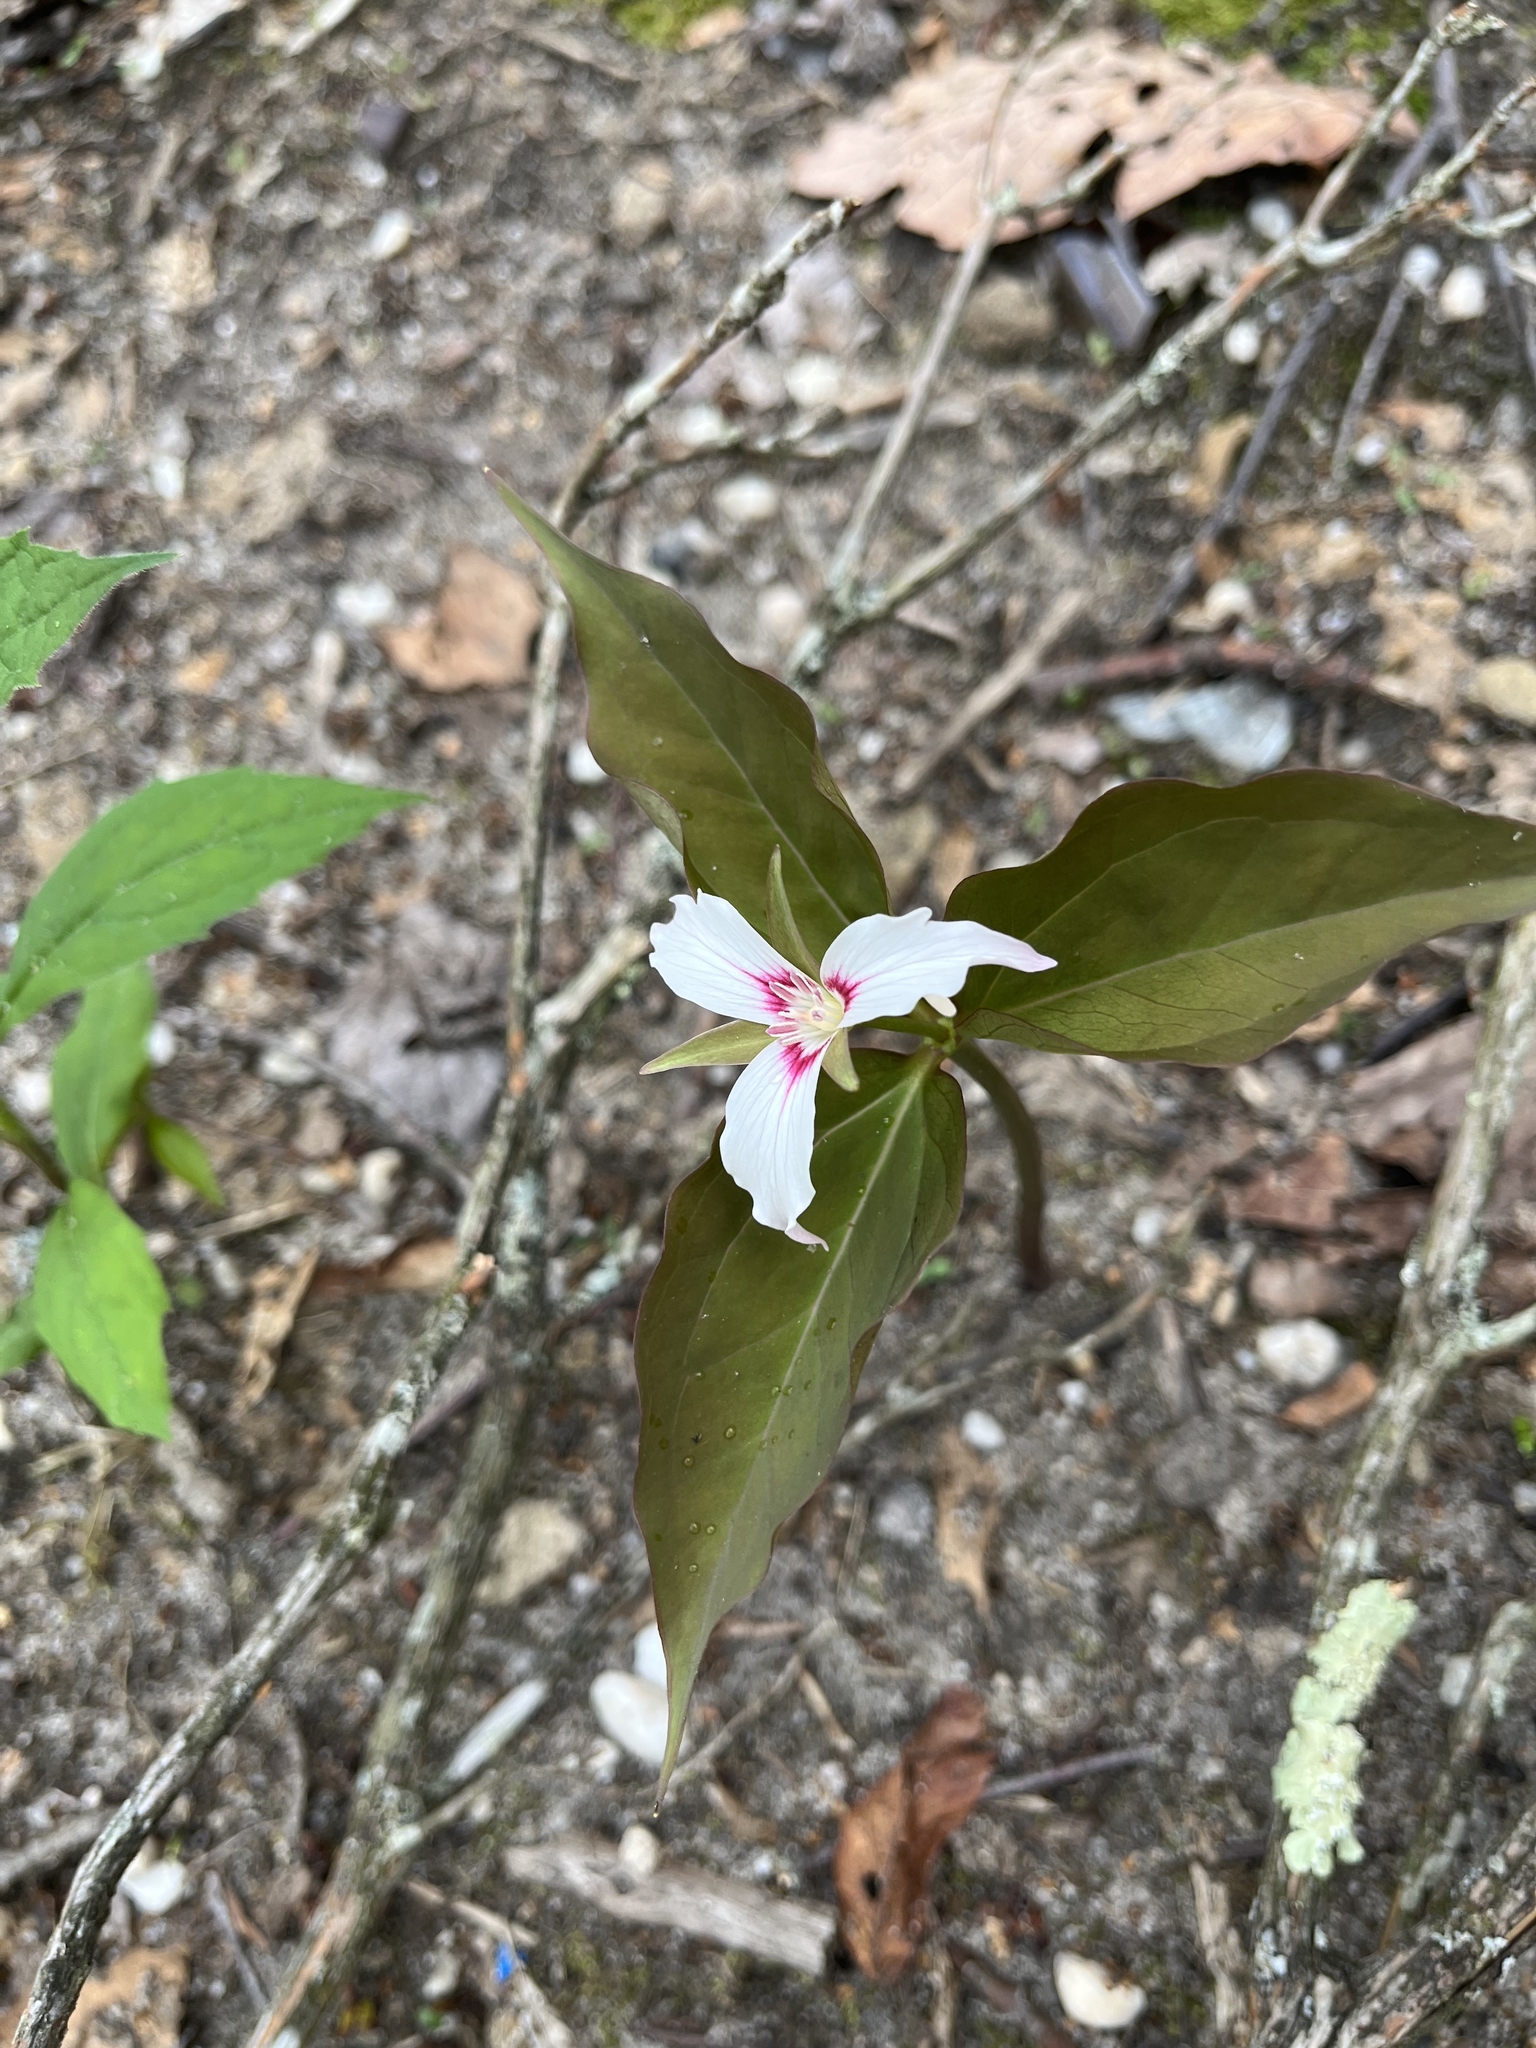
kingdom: Plantae
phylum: Tracheophyta
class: Liliopsida
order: Liliales
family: Melanthiaceae
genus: Trillium
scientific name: Trillium undulatum
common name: Paint trillium
